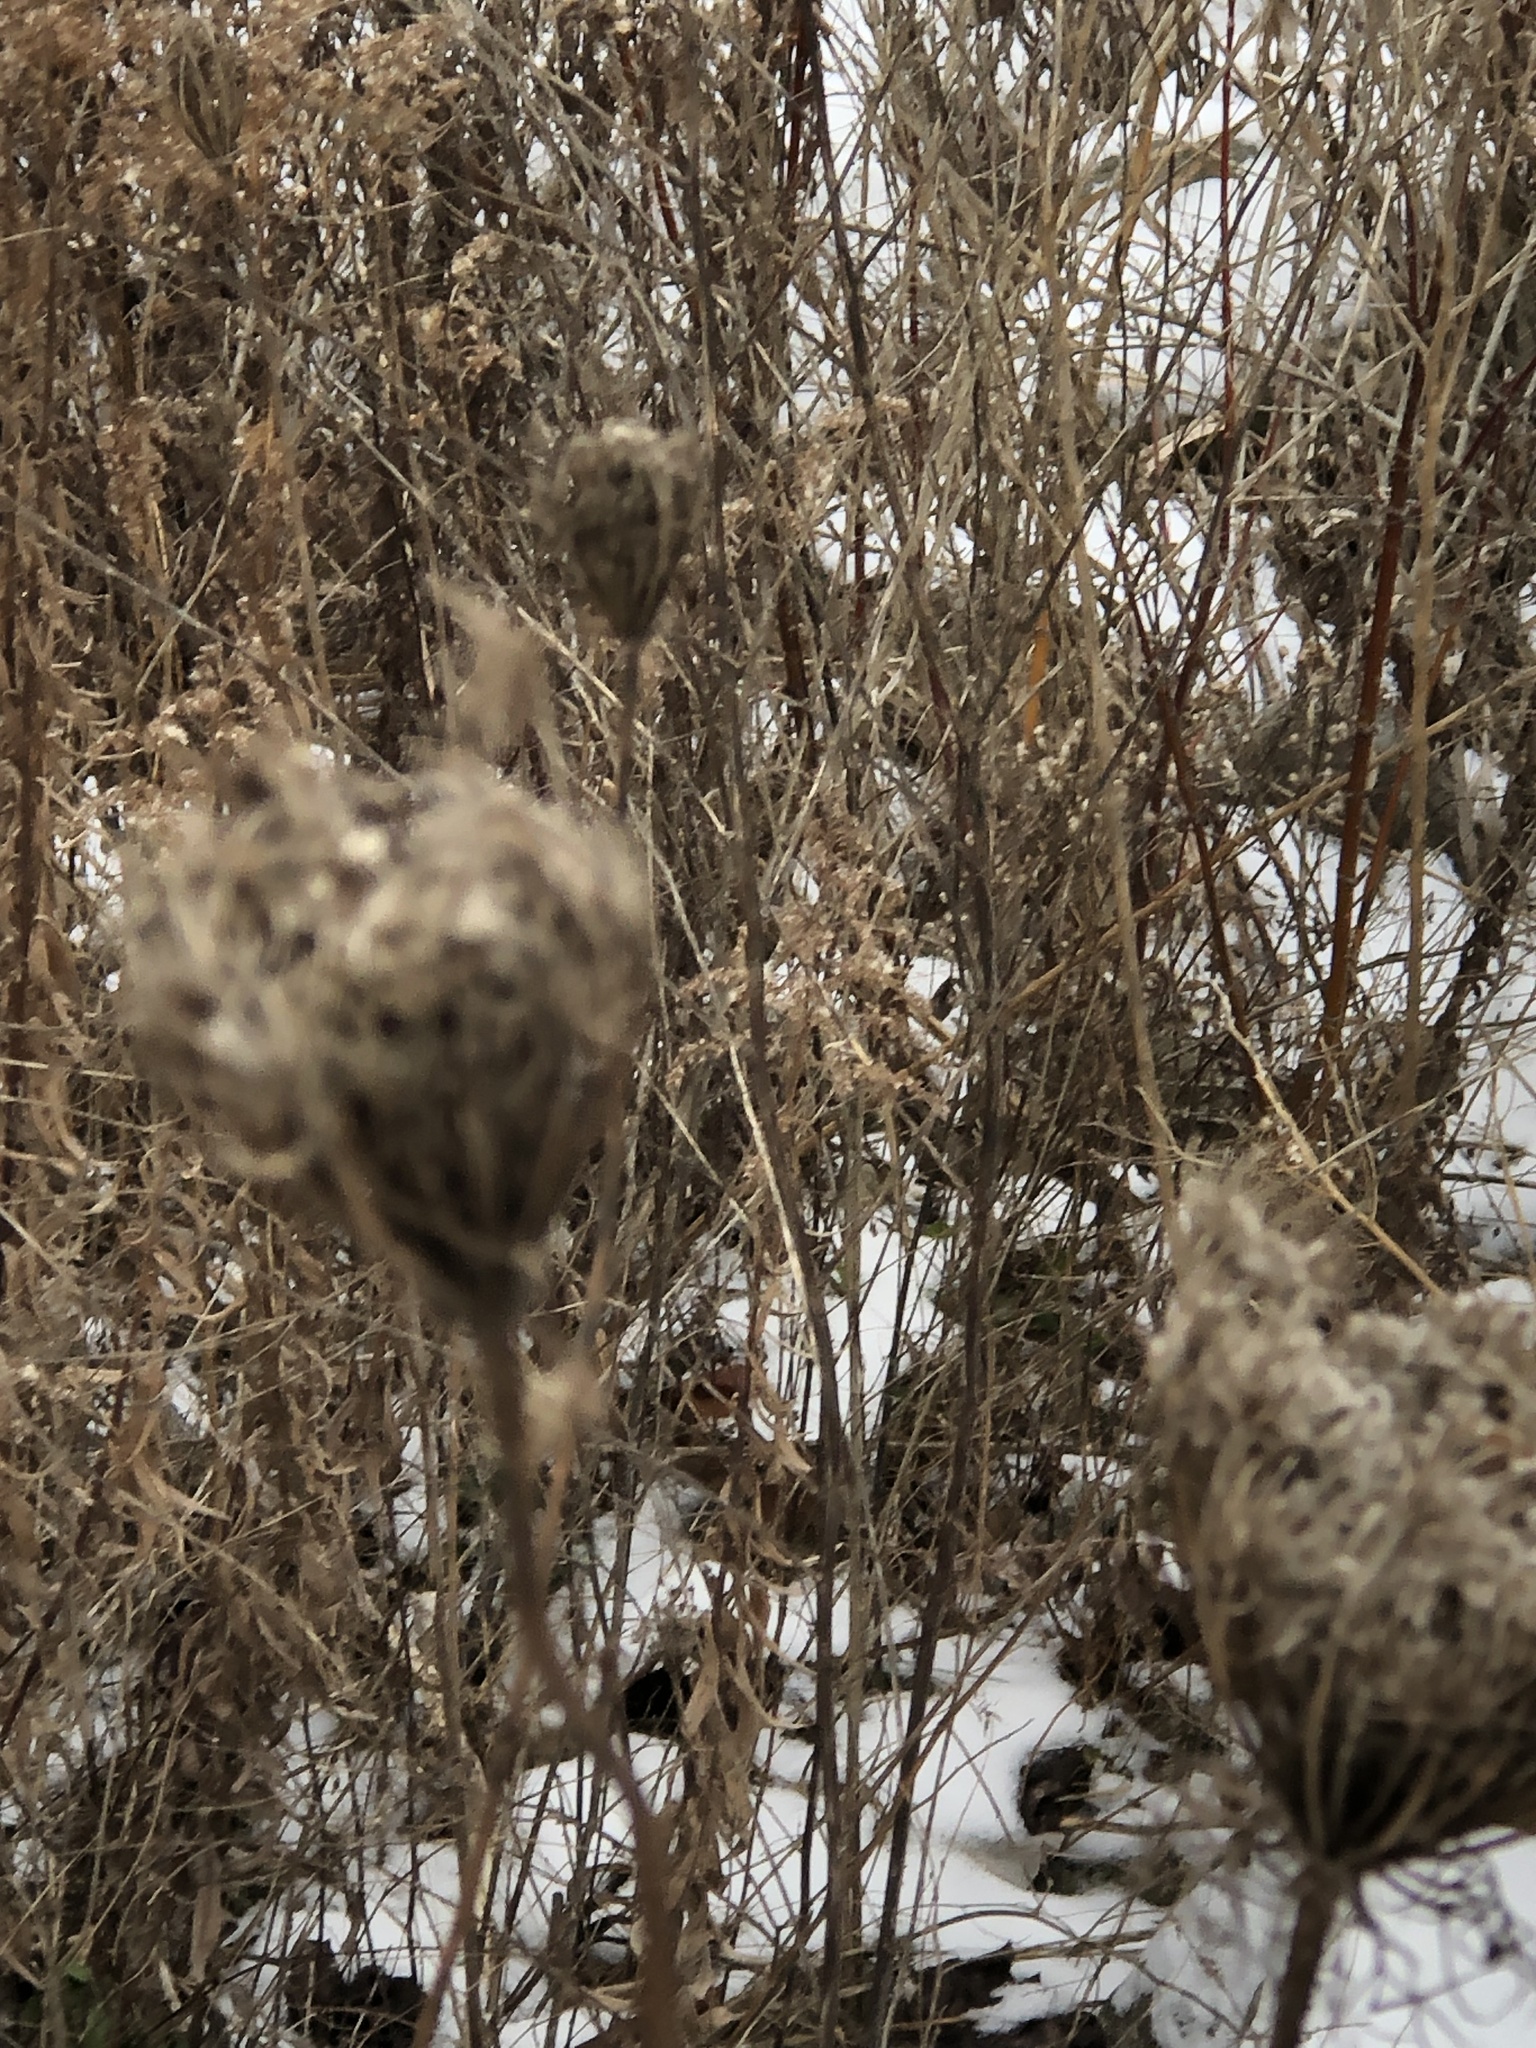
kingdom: Plantae
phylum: Tracheophyta
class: Magnoliopsida
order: Apiales
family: Apiaceae
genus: Daucus
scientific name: Daucus carota
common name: Wild carrot
